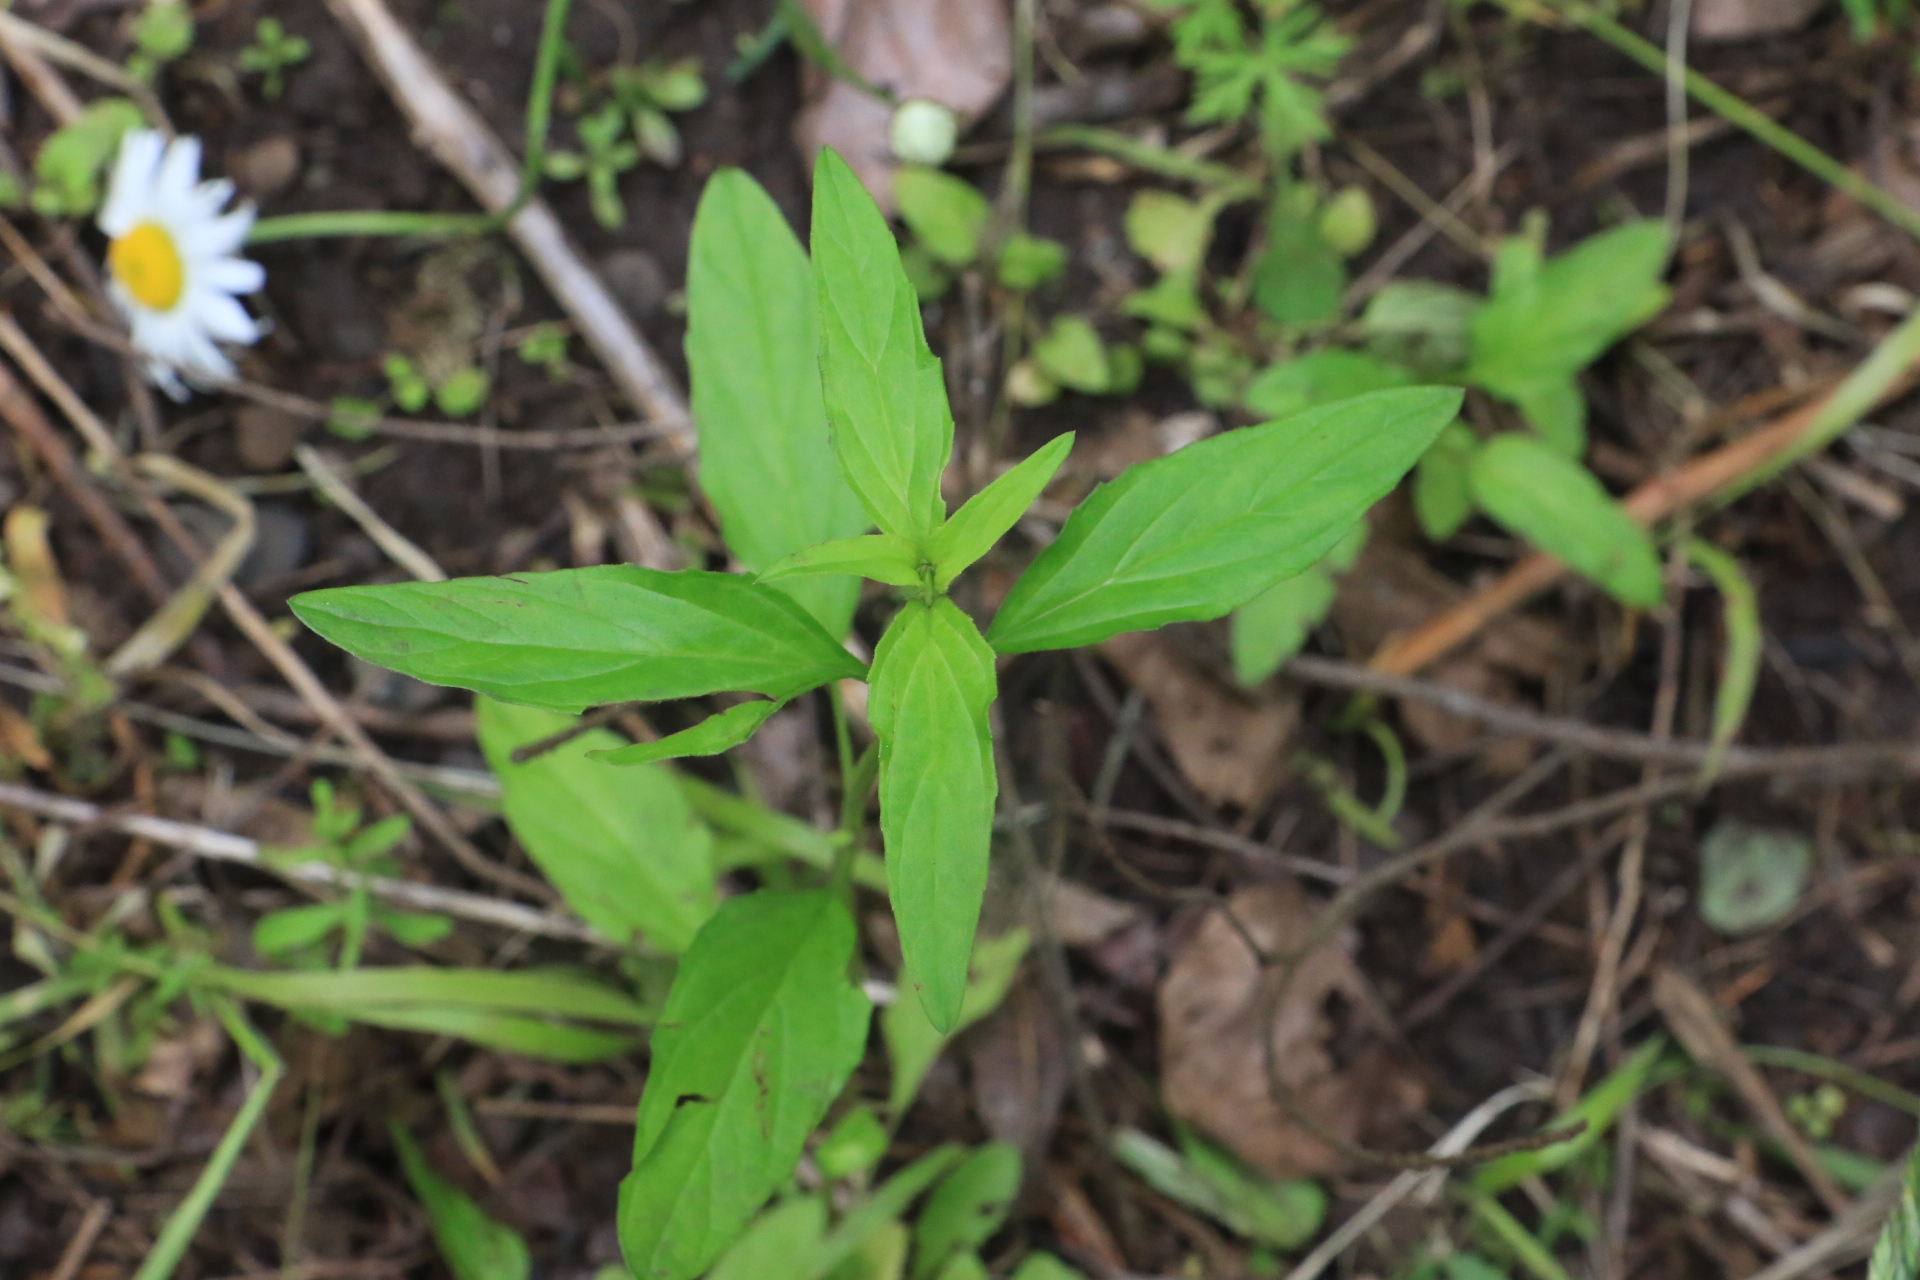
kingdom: Plantae
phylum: Tracheophyta
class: Magnoliopsida
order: Lamiales
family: Lamiaceae
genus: Prunella
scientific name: Prunella vulgaris
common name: Heal-all
